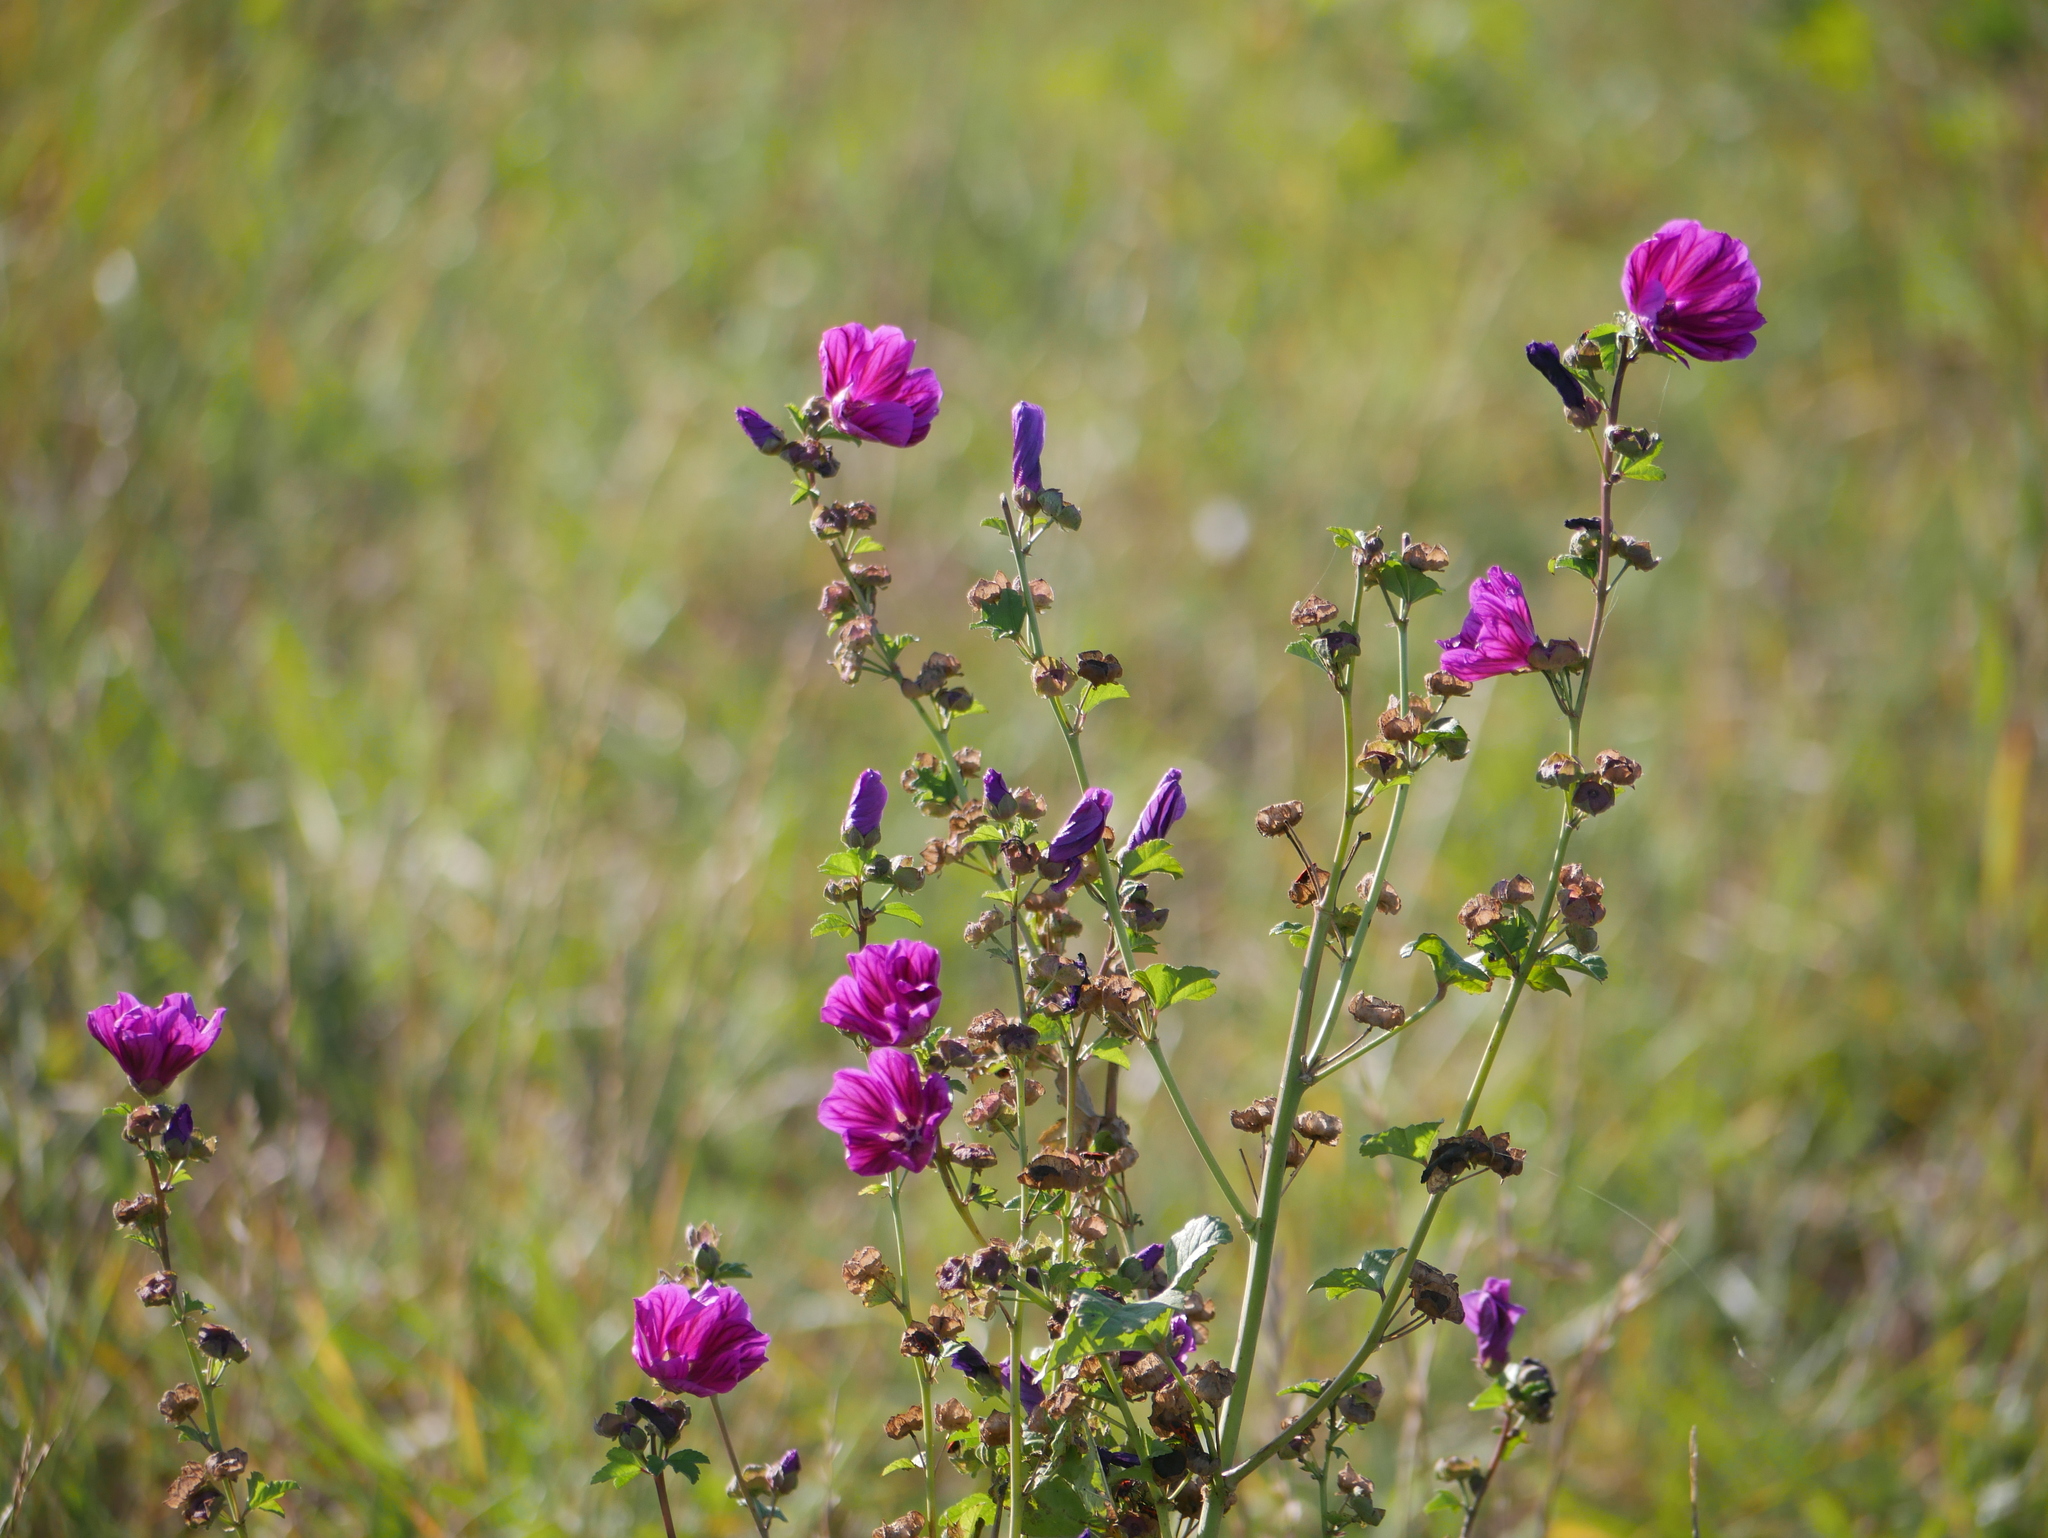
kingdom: Plantae
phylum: Tracheophyta
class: Magnoliopsida
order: Malvales
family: Malvaceae
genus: Malva
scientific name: Malva sylvestris
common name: Common mallow
